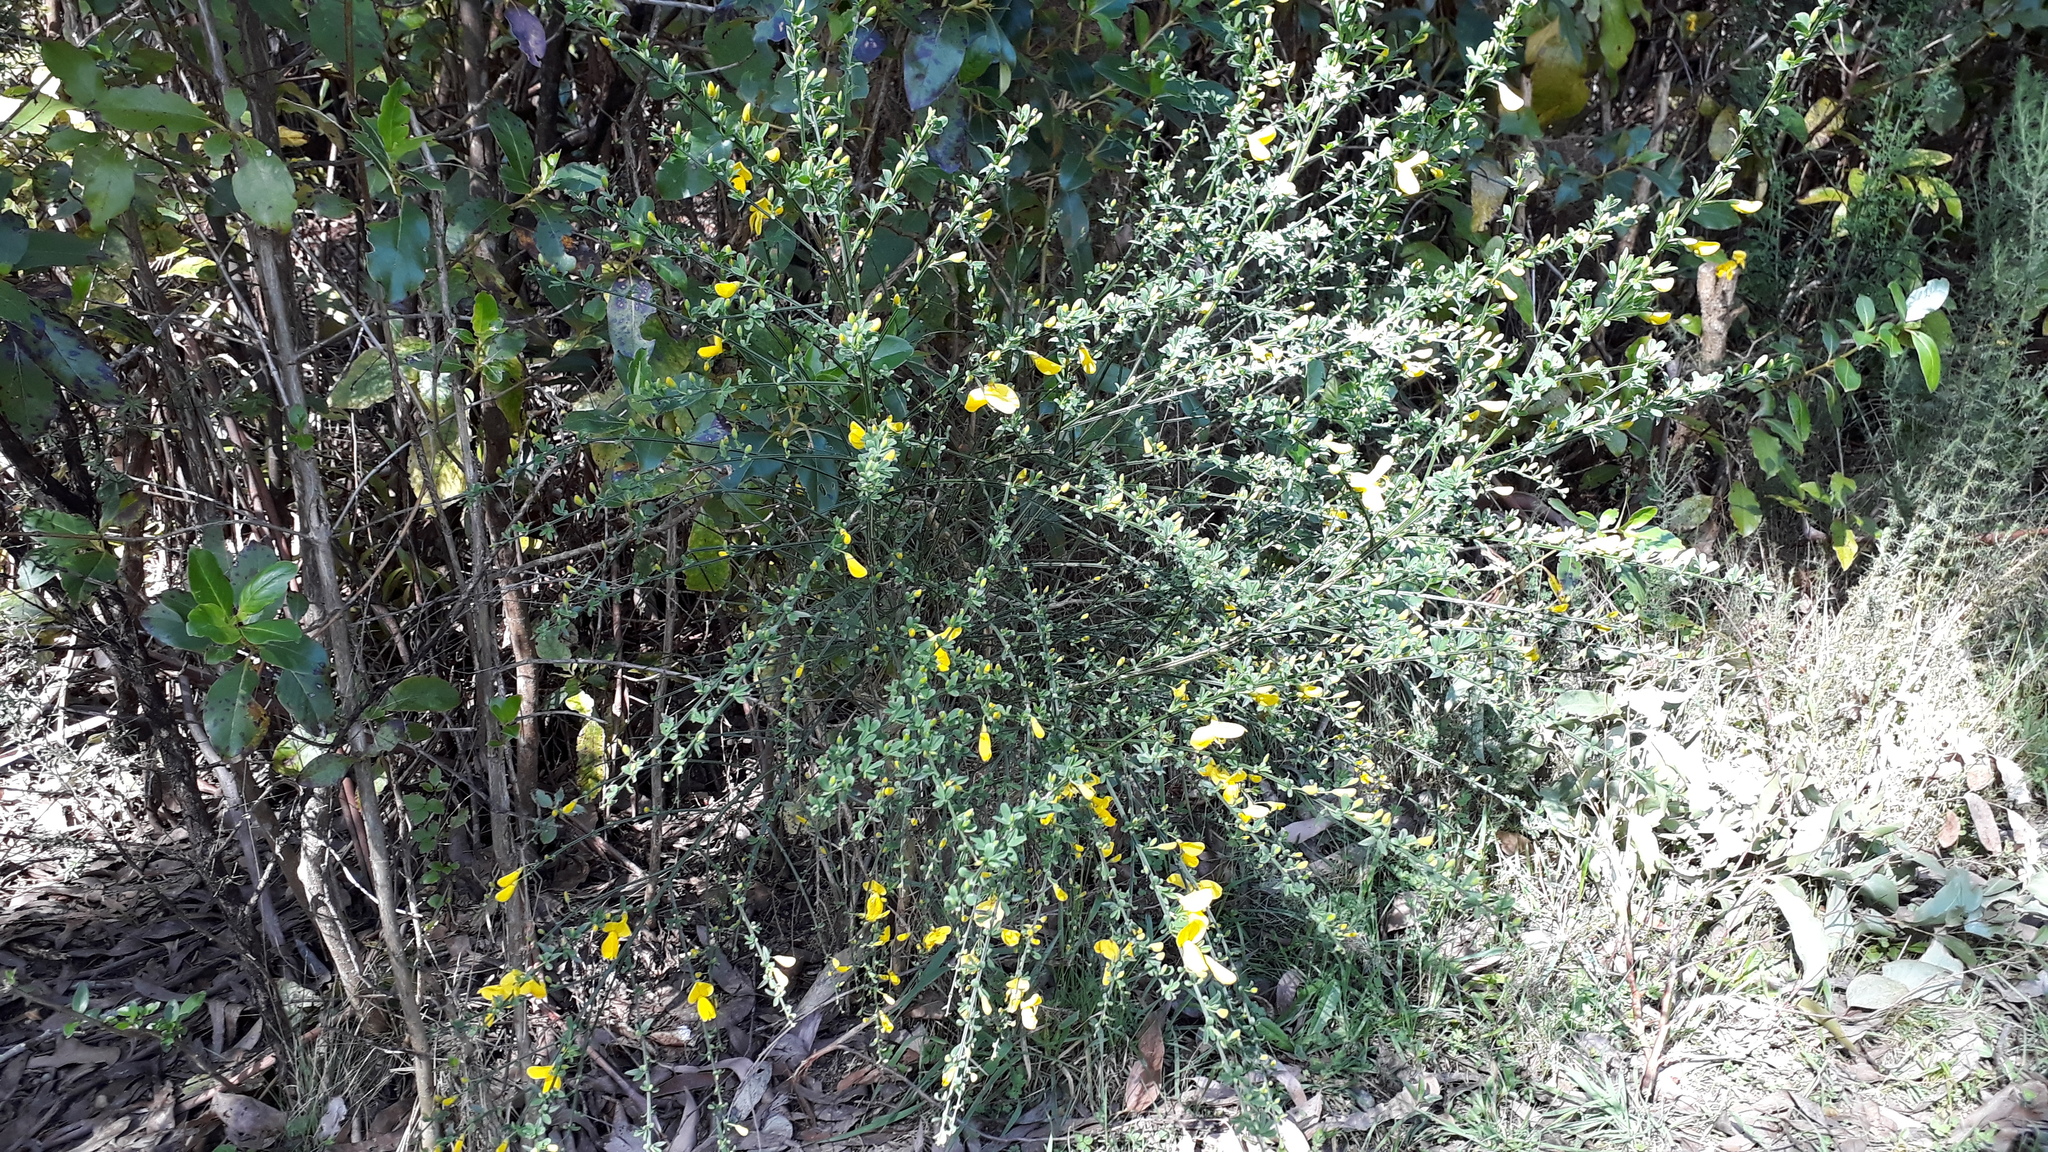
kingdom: Plantae
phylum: Tracheophyta
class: Magnoliopsida
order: Fabales
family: Fabaceae
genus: Cytisus
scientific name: Cytisus scoparius
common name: Scotch broom
